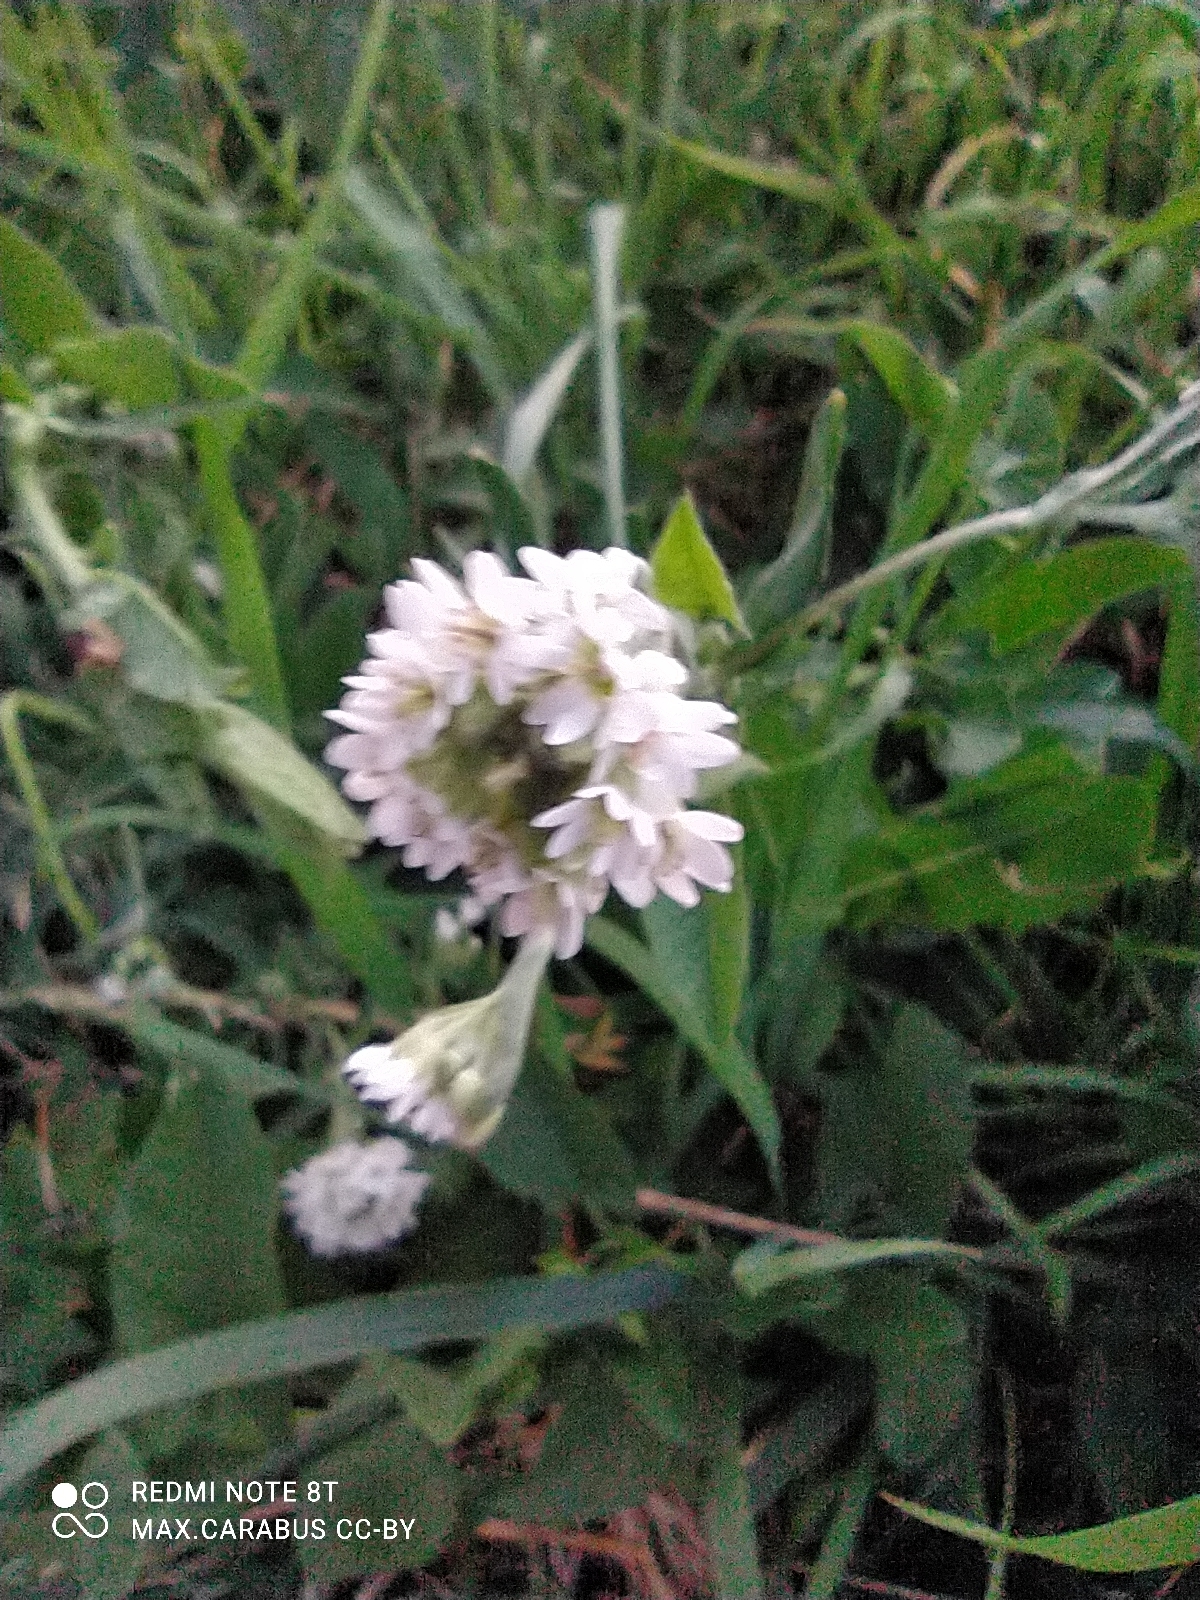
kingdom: Plantae
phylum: Tracheophyta
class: Magnoliopsida
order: Brassicales
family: Brassicaceae
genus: Berteroa
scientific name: Berteroa incana
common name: Hoary alison
